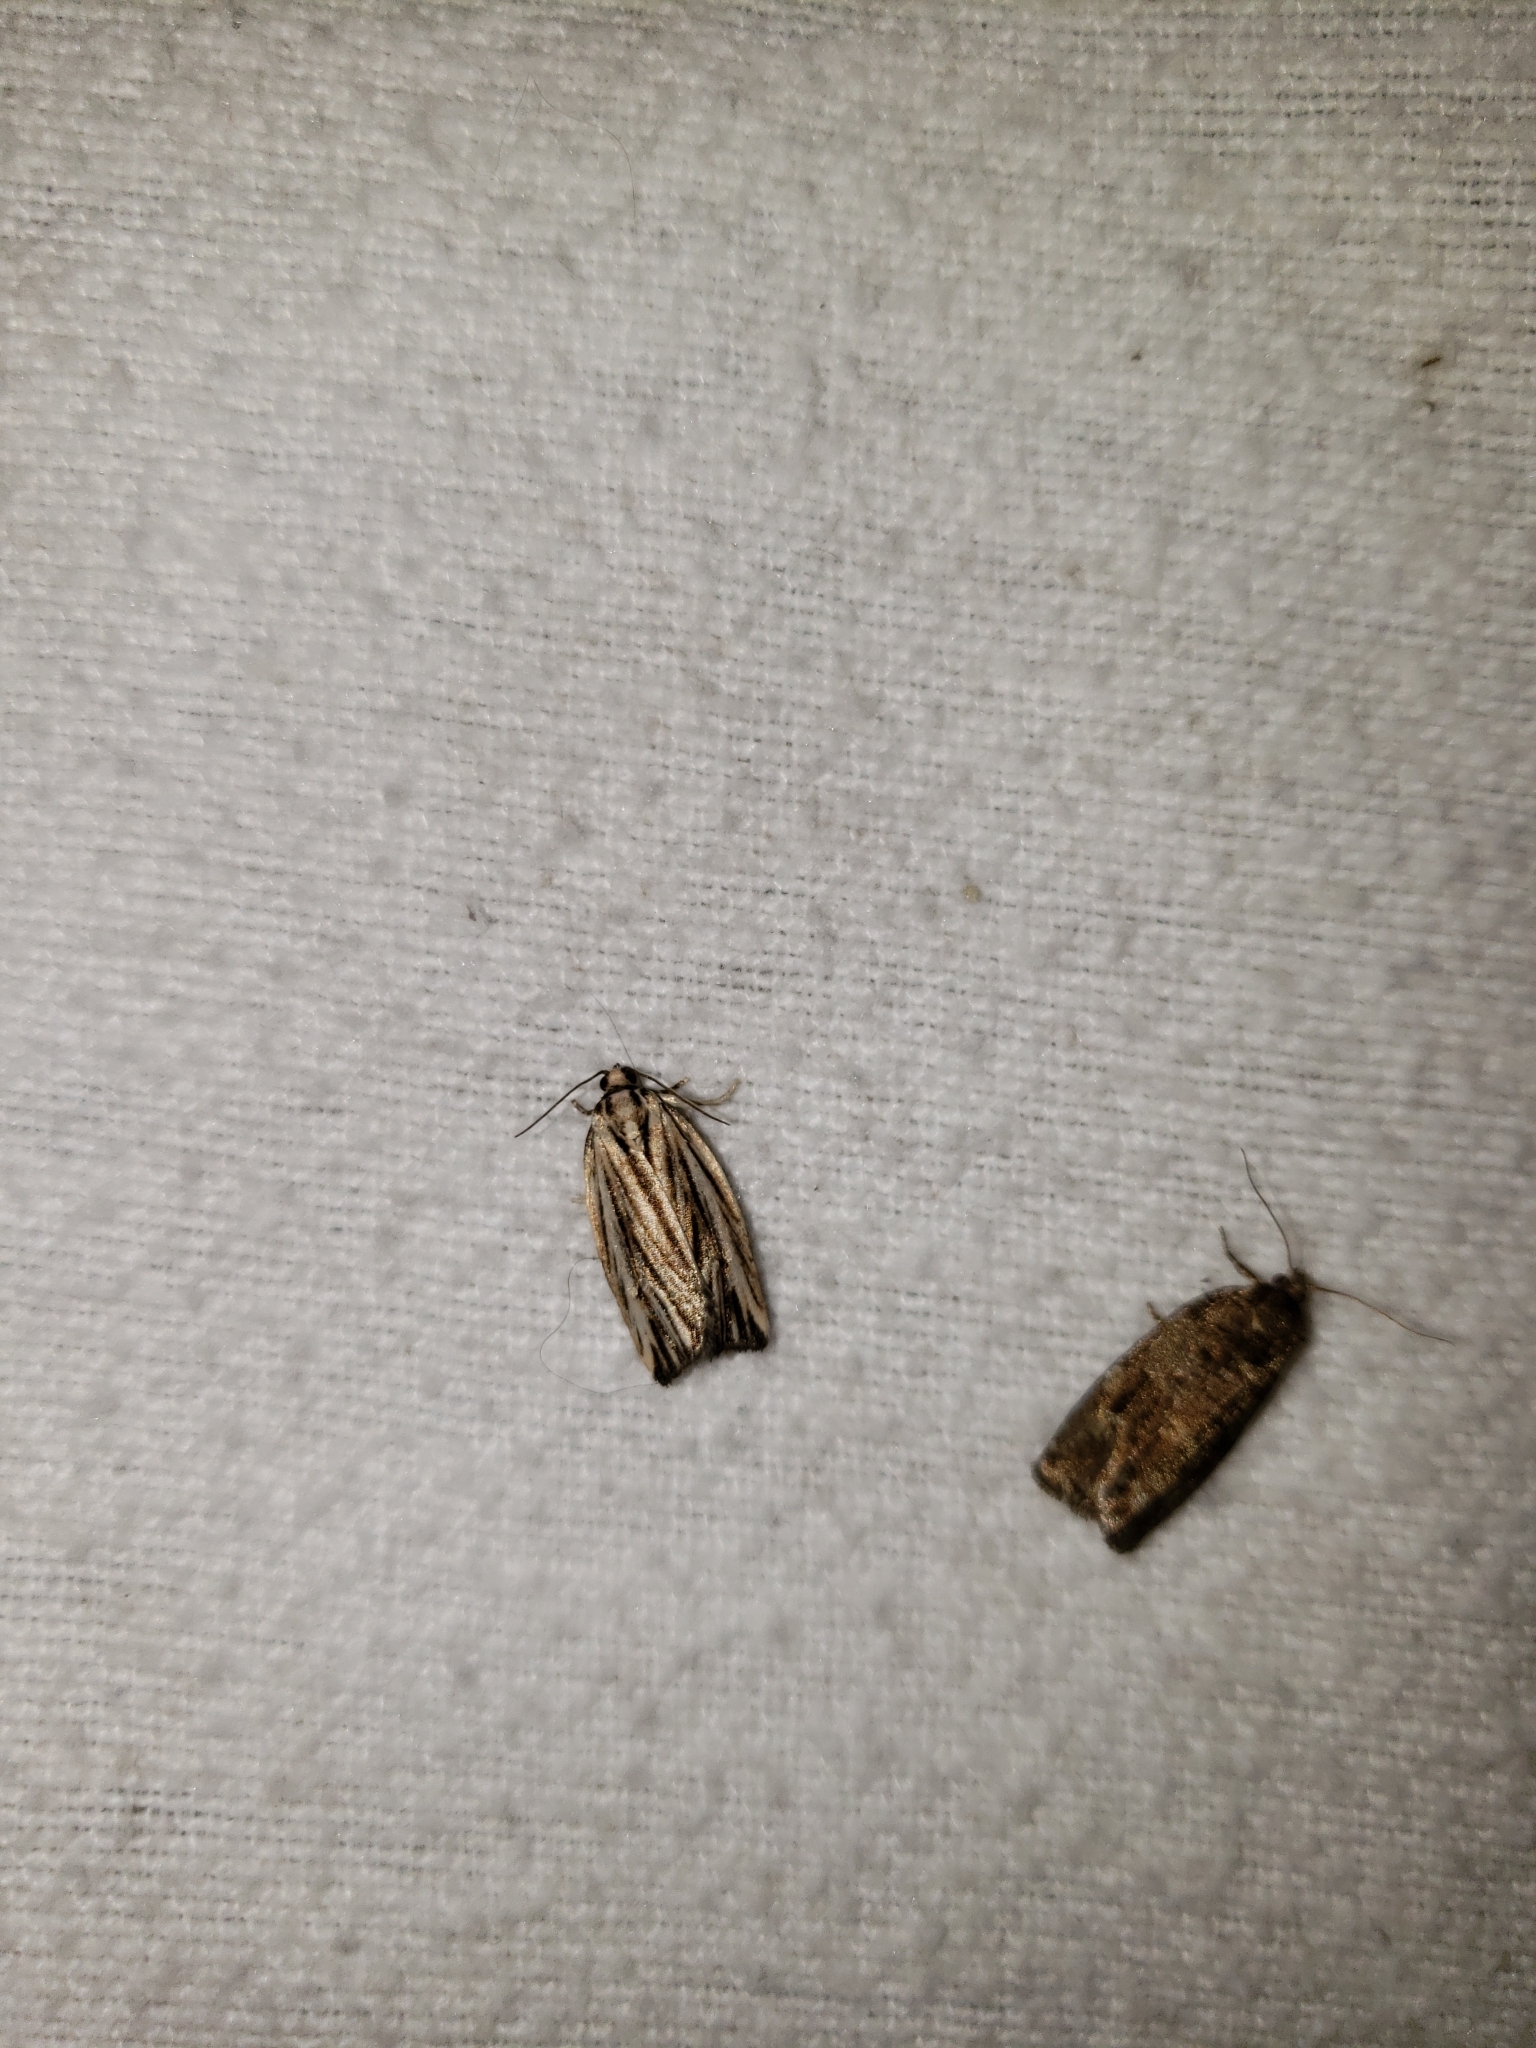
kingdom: Animalia
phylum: Arthropoda
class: Insecta
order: Lepidoptera
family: Tortricidae
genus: Archips
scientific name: Archips strianus
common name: Striated tortrix moth
